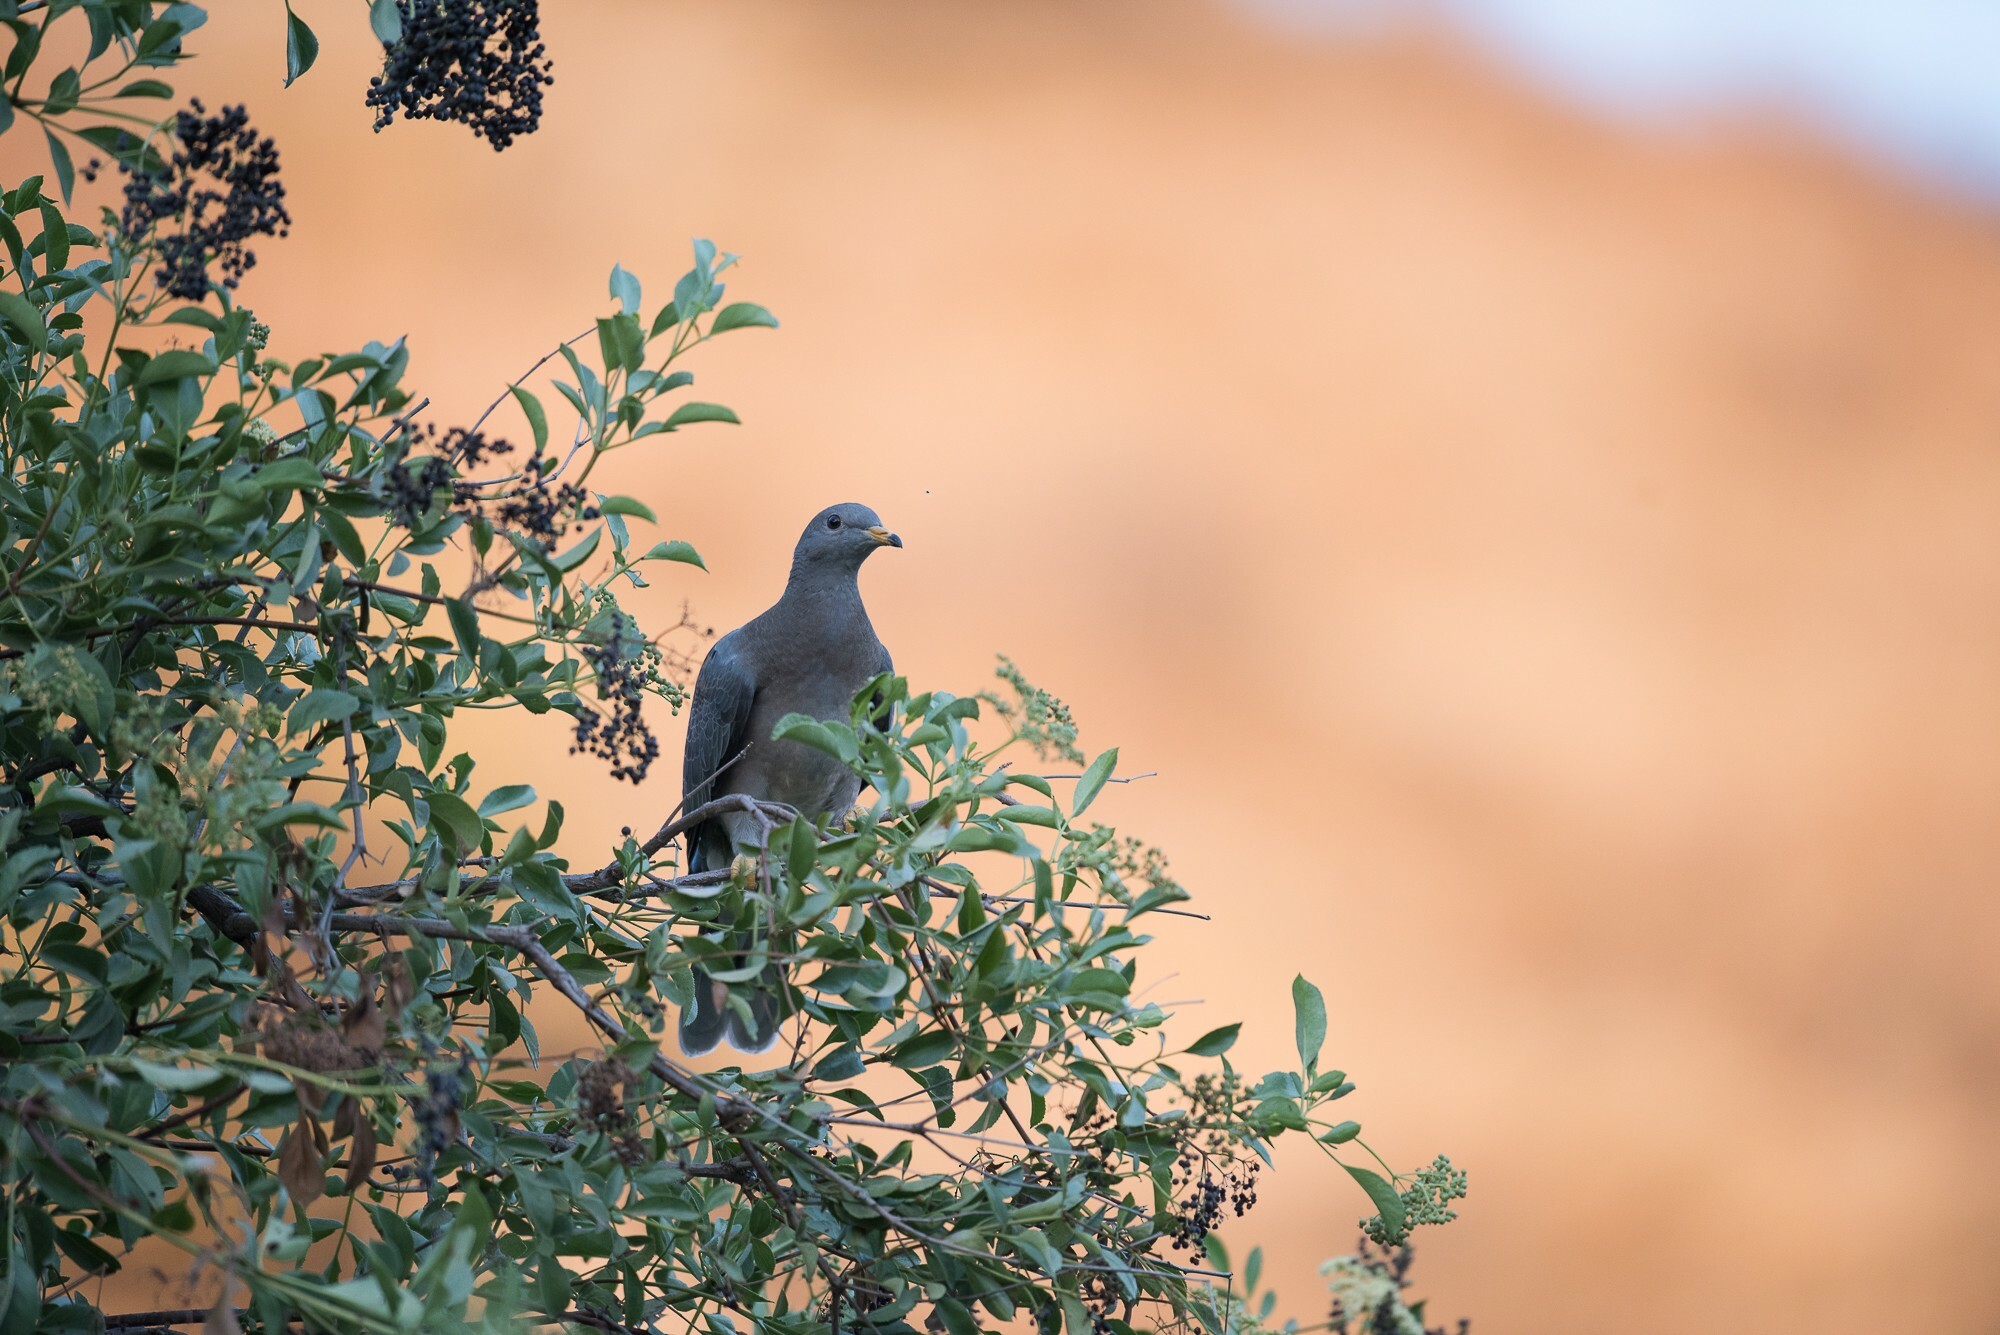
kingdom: Animalia
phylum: Chordata
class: Aves
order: Columbiformes
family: Columbidae
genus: Patagioenas
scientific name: Patagioenas fasciata
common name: Band-tailed pigeon
